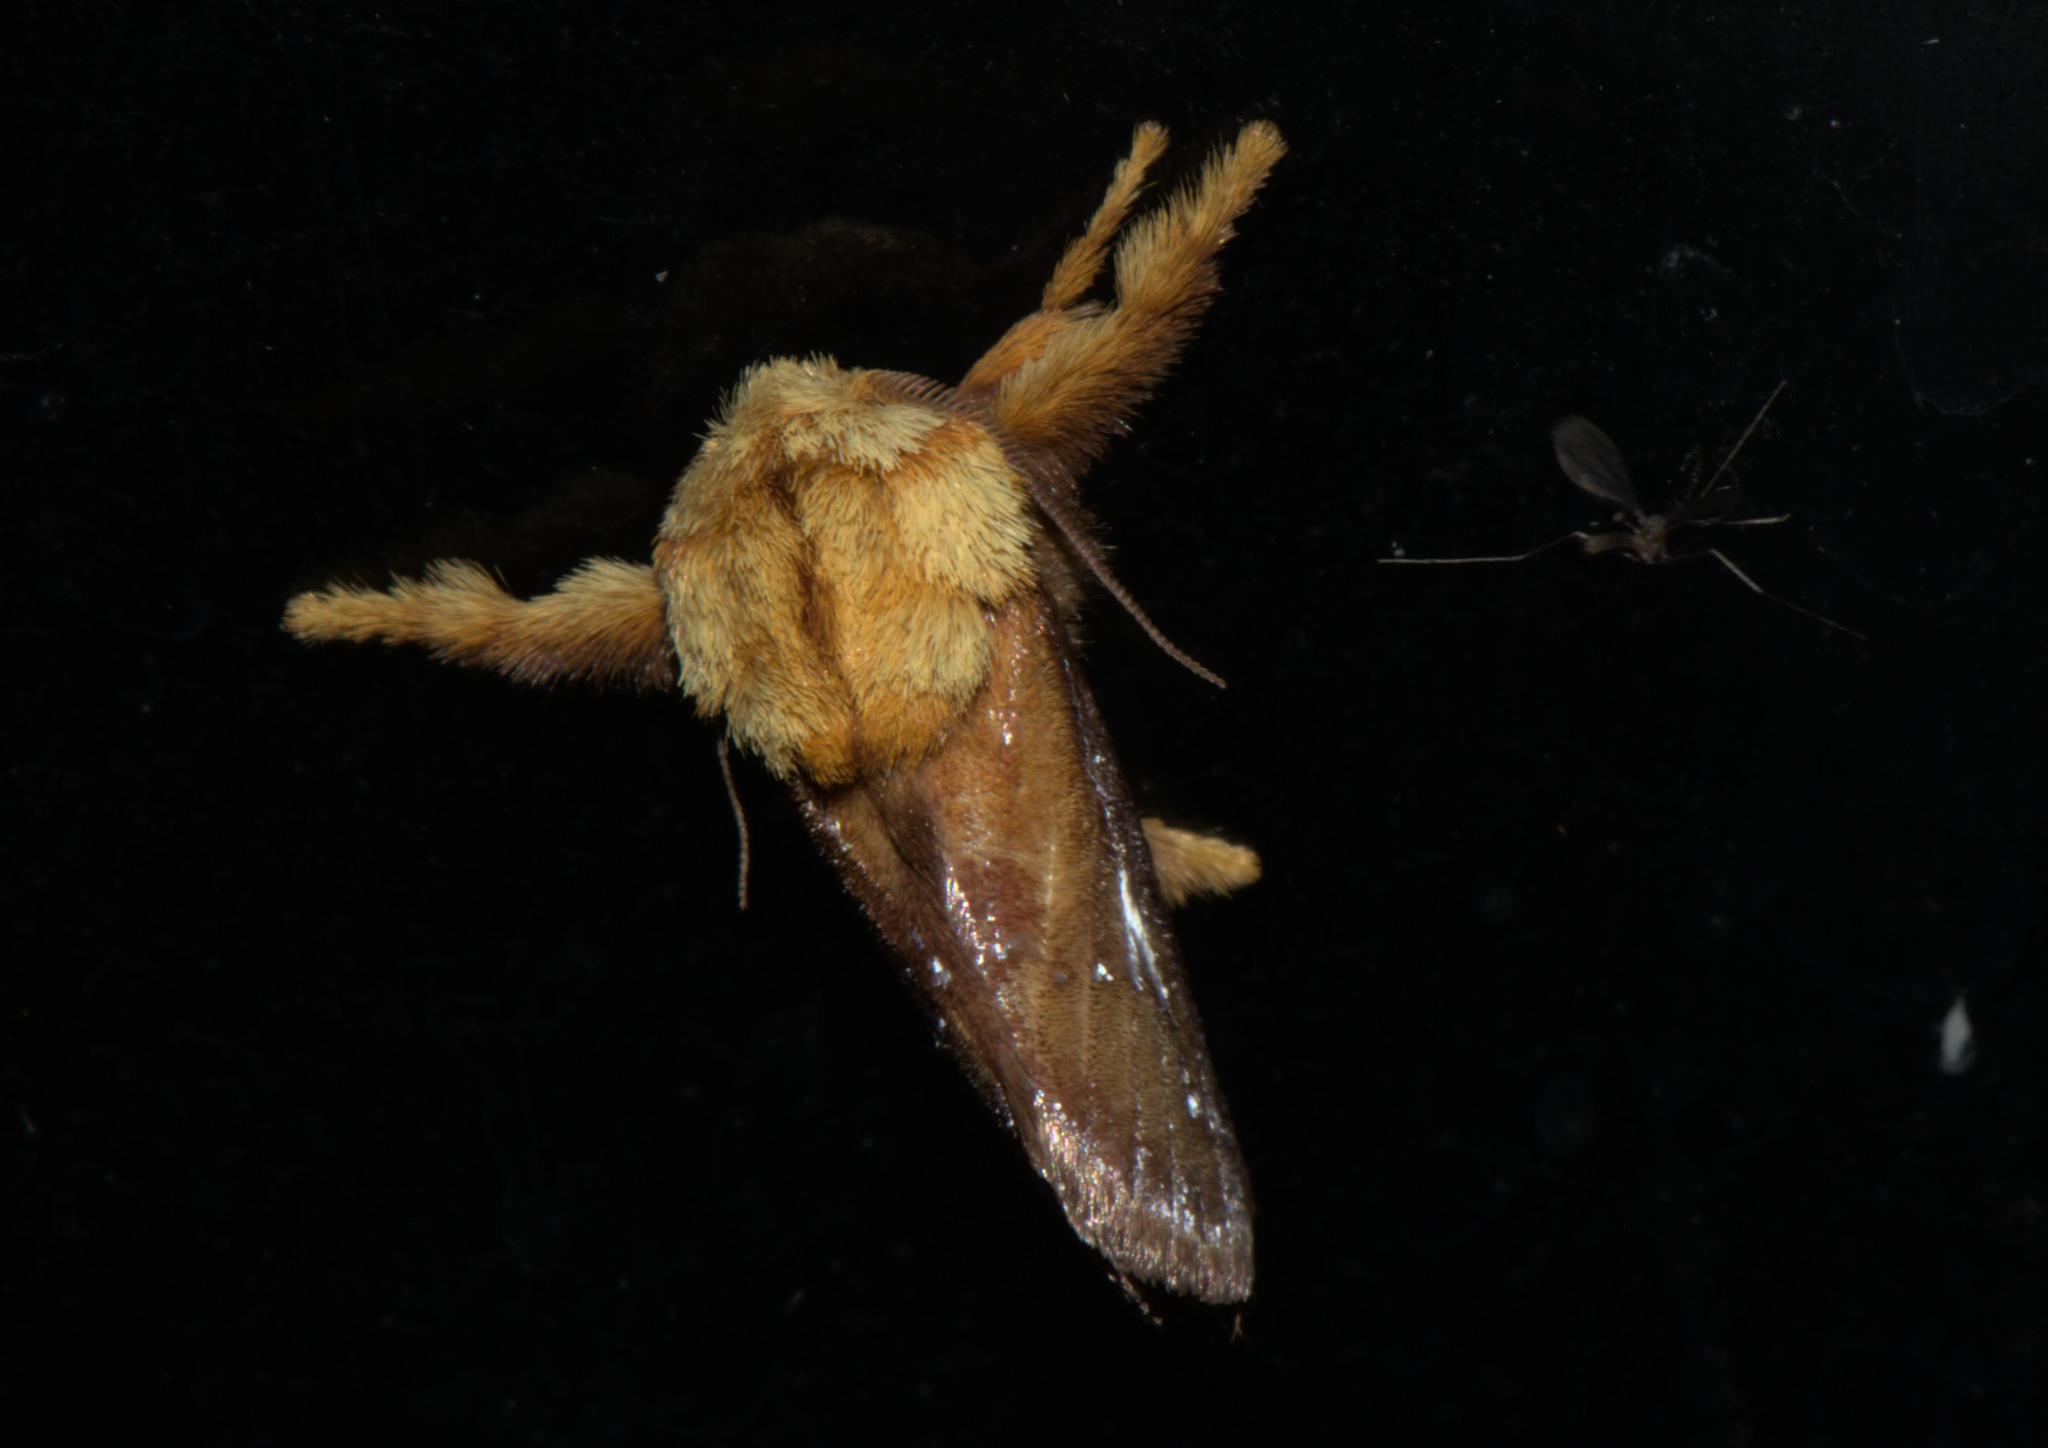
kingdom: Animalia
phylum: Arthropoda
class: Insecta
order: Lepidoptera
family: Limacodidae
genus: Miresa
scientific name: Miresa bracteata
